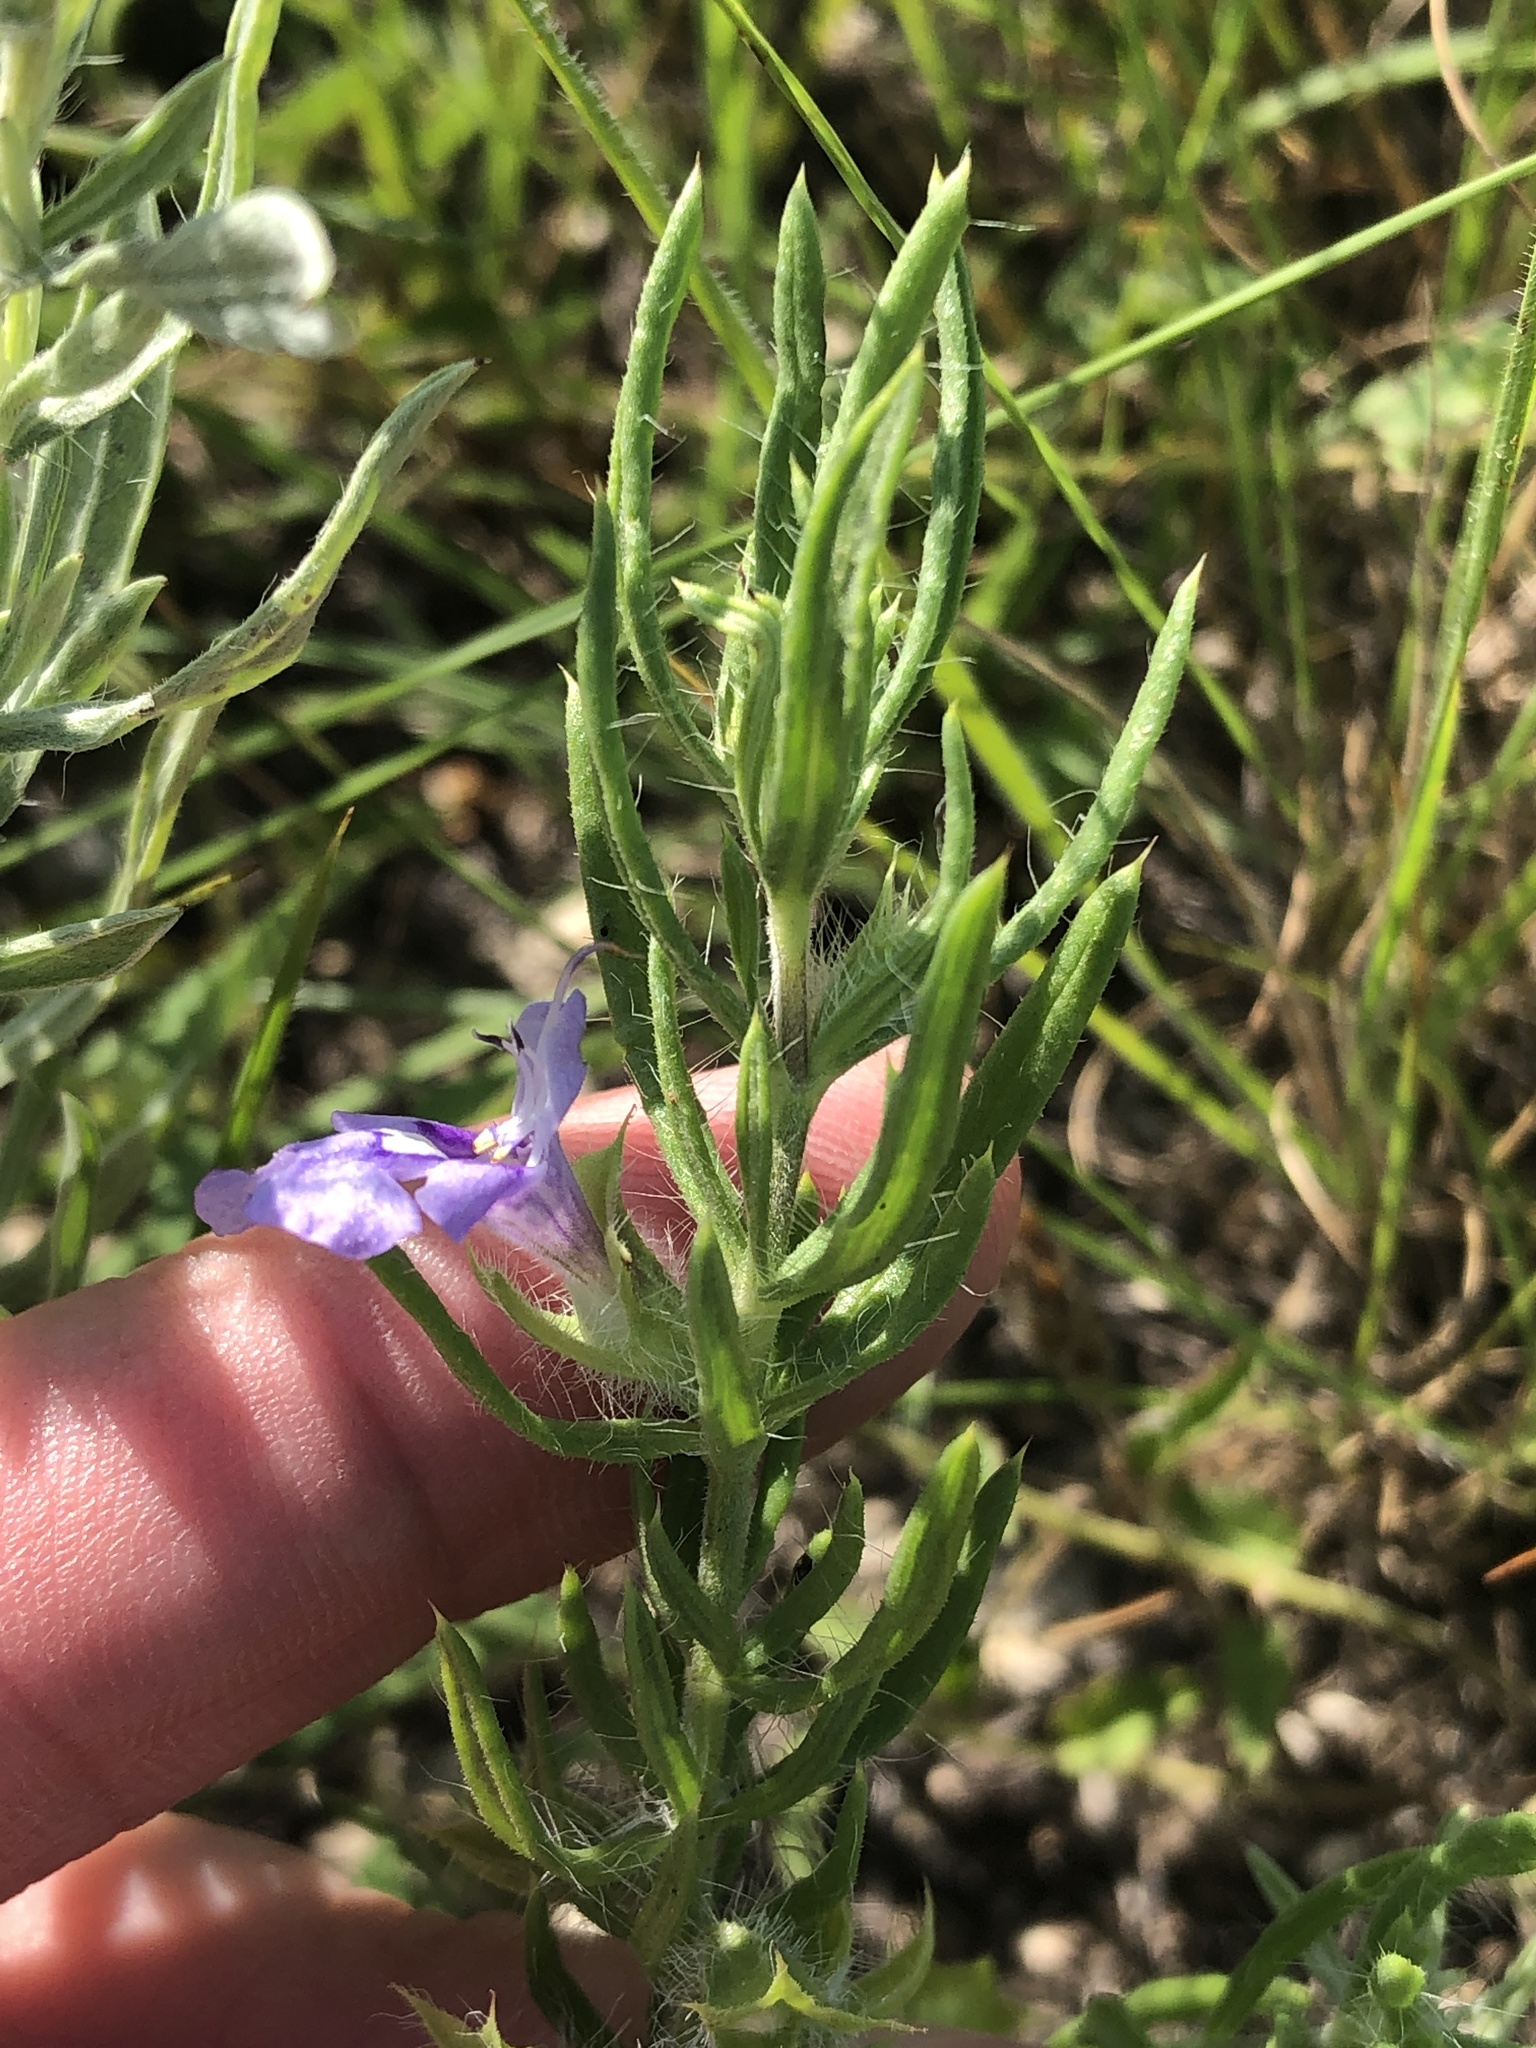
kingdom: Plantae
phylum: Tracheophyta
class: Magnoliopsida
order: Lamiales
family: Lamiaceae
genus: Salvia
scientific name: Salvia texana
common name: Texas sage
